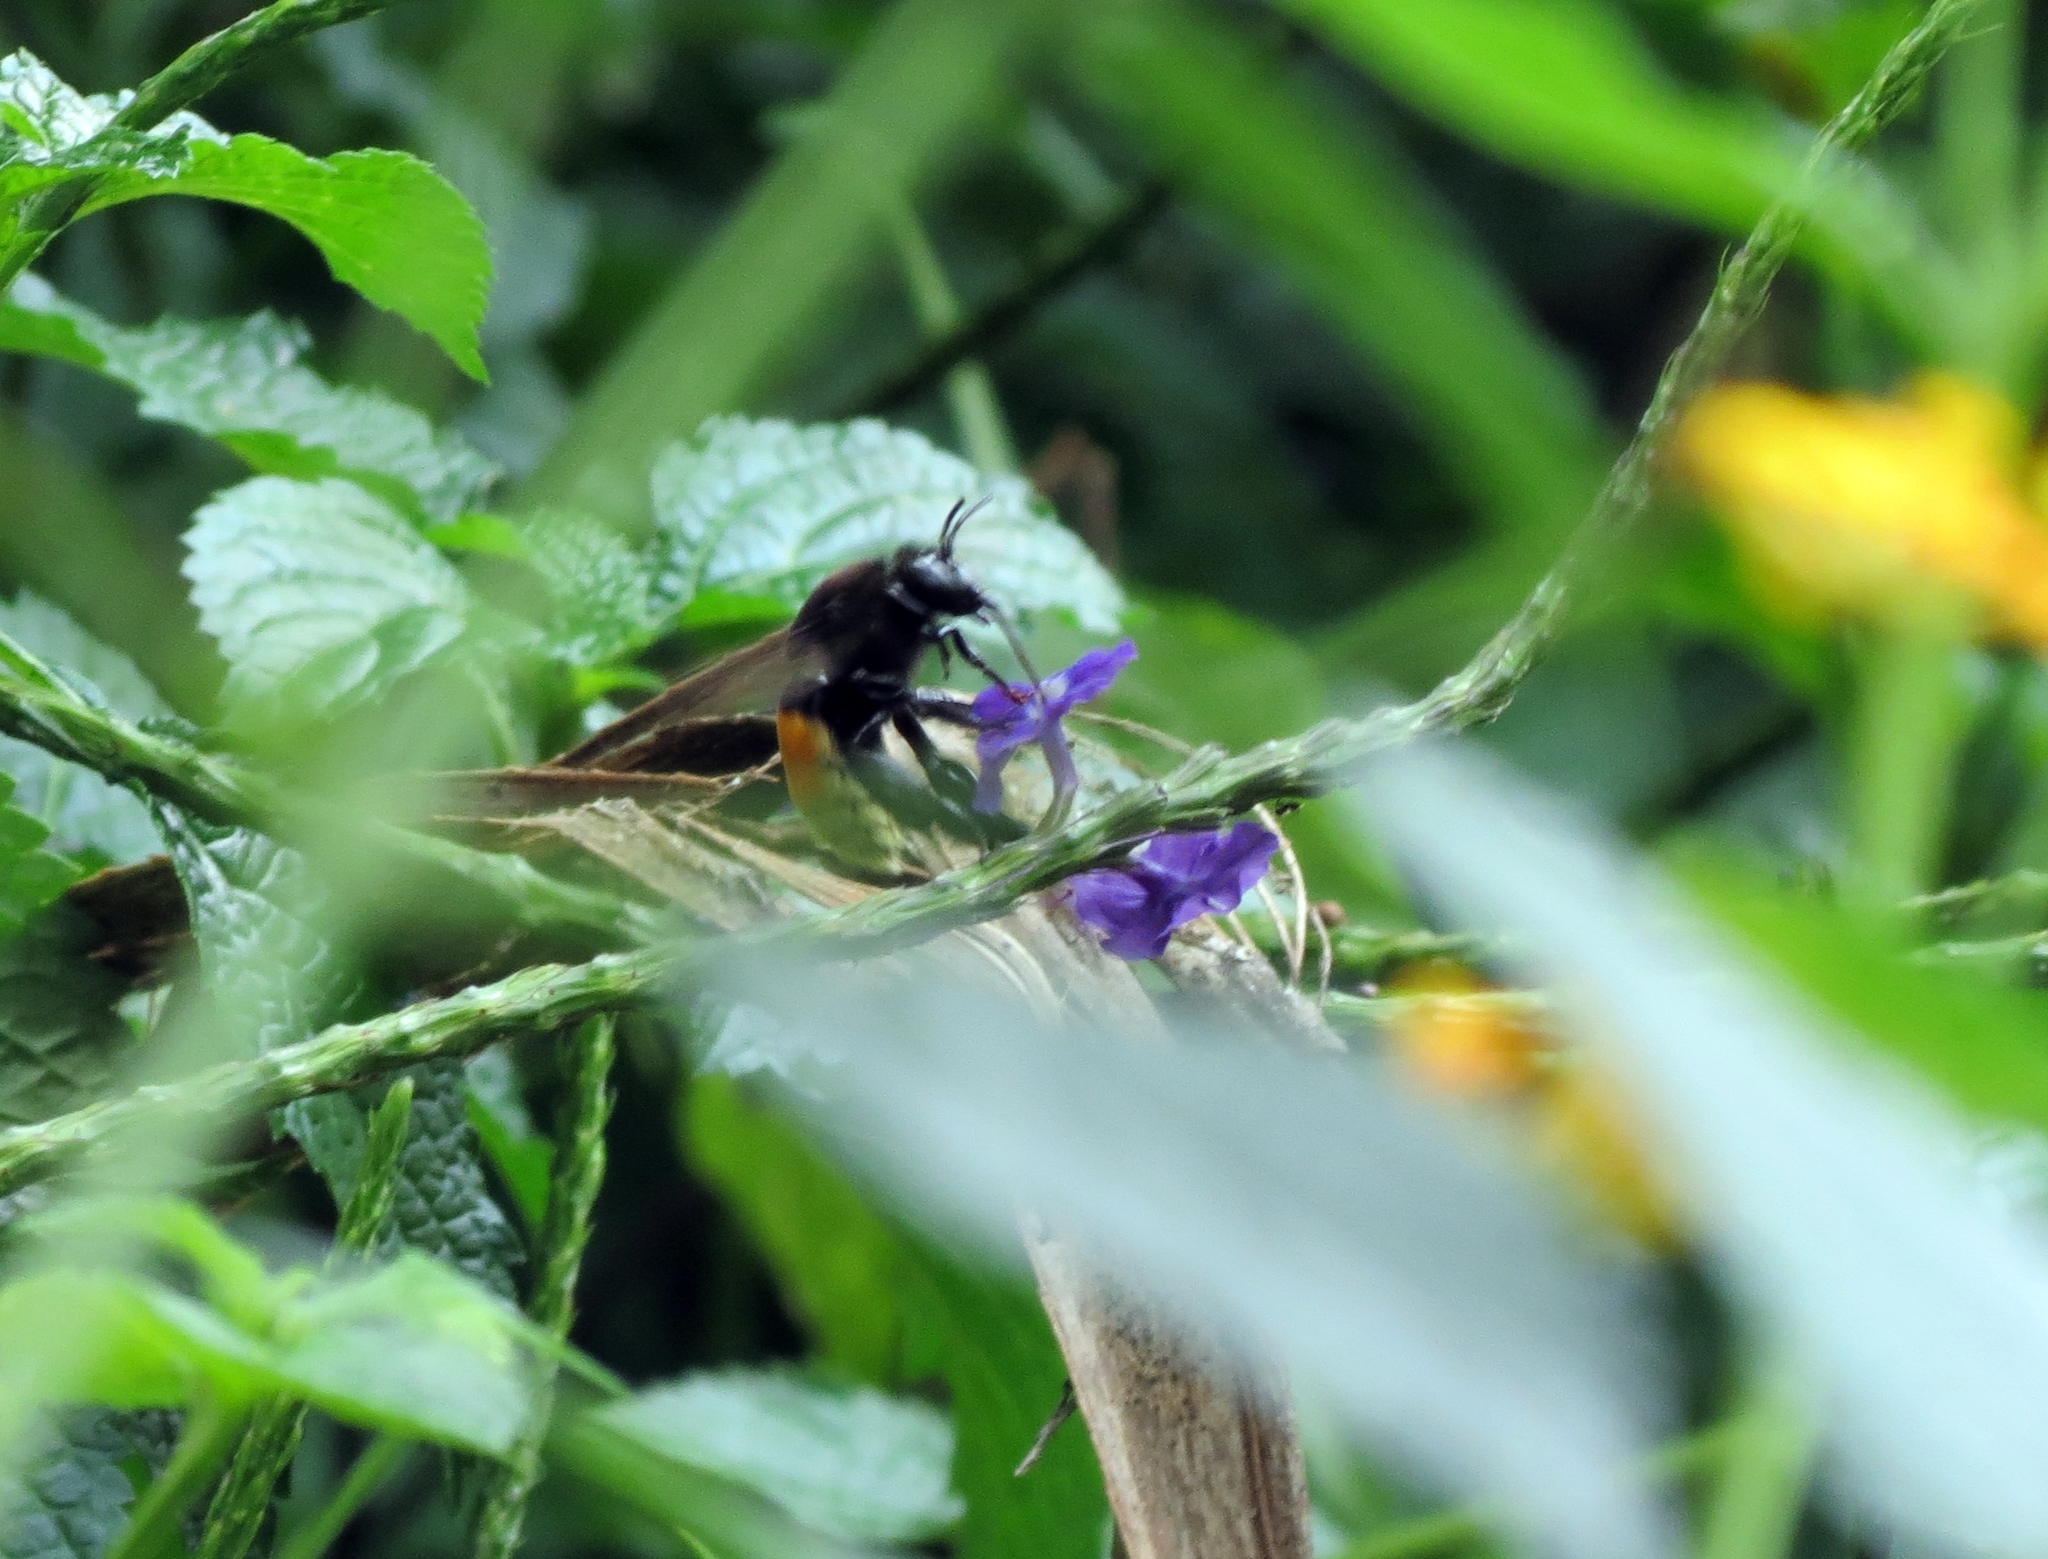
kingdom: Animalia
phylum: Arthropoda
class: Insecta
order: Hymenoptera
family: Apidae
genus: Eulaema
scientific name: Eulaema polychroma
